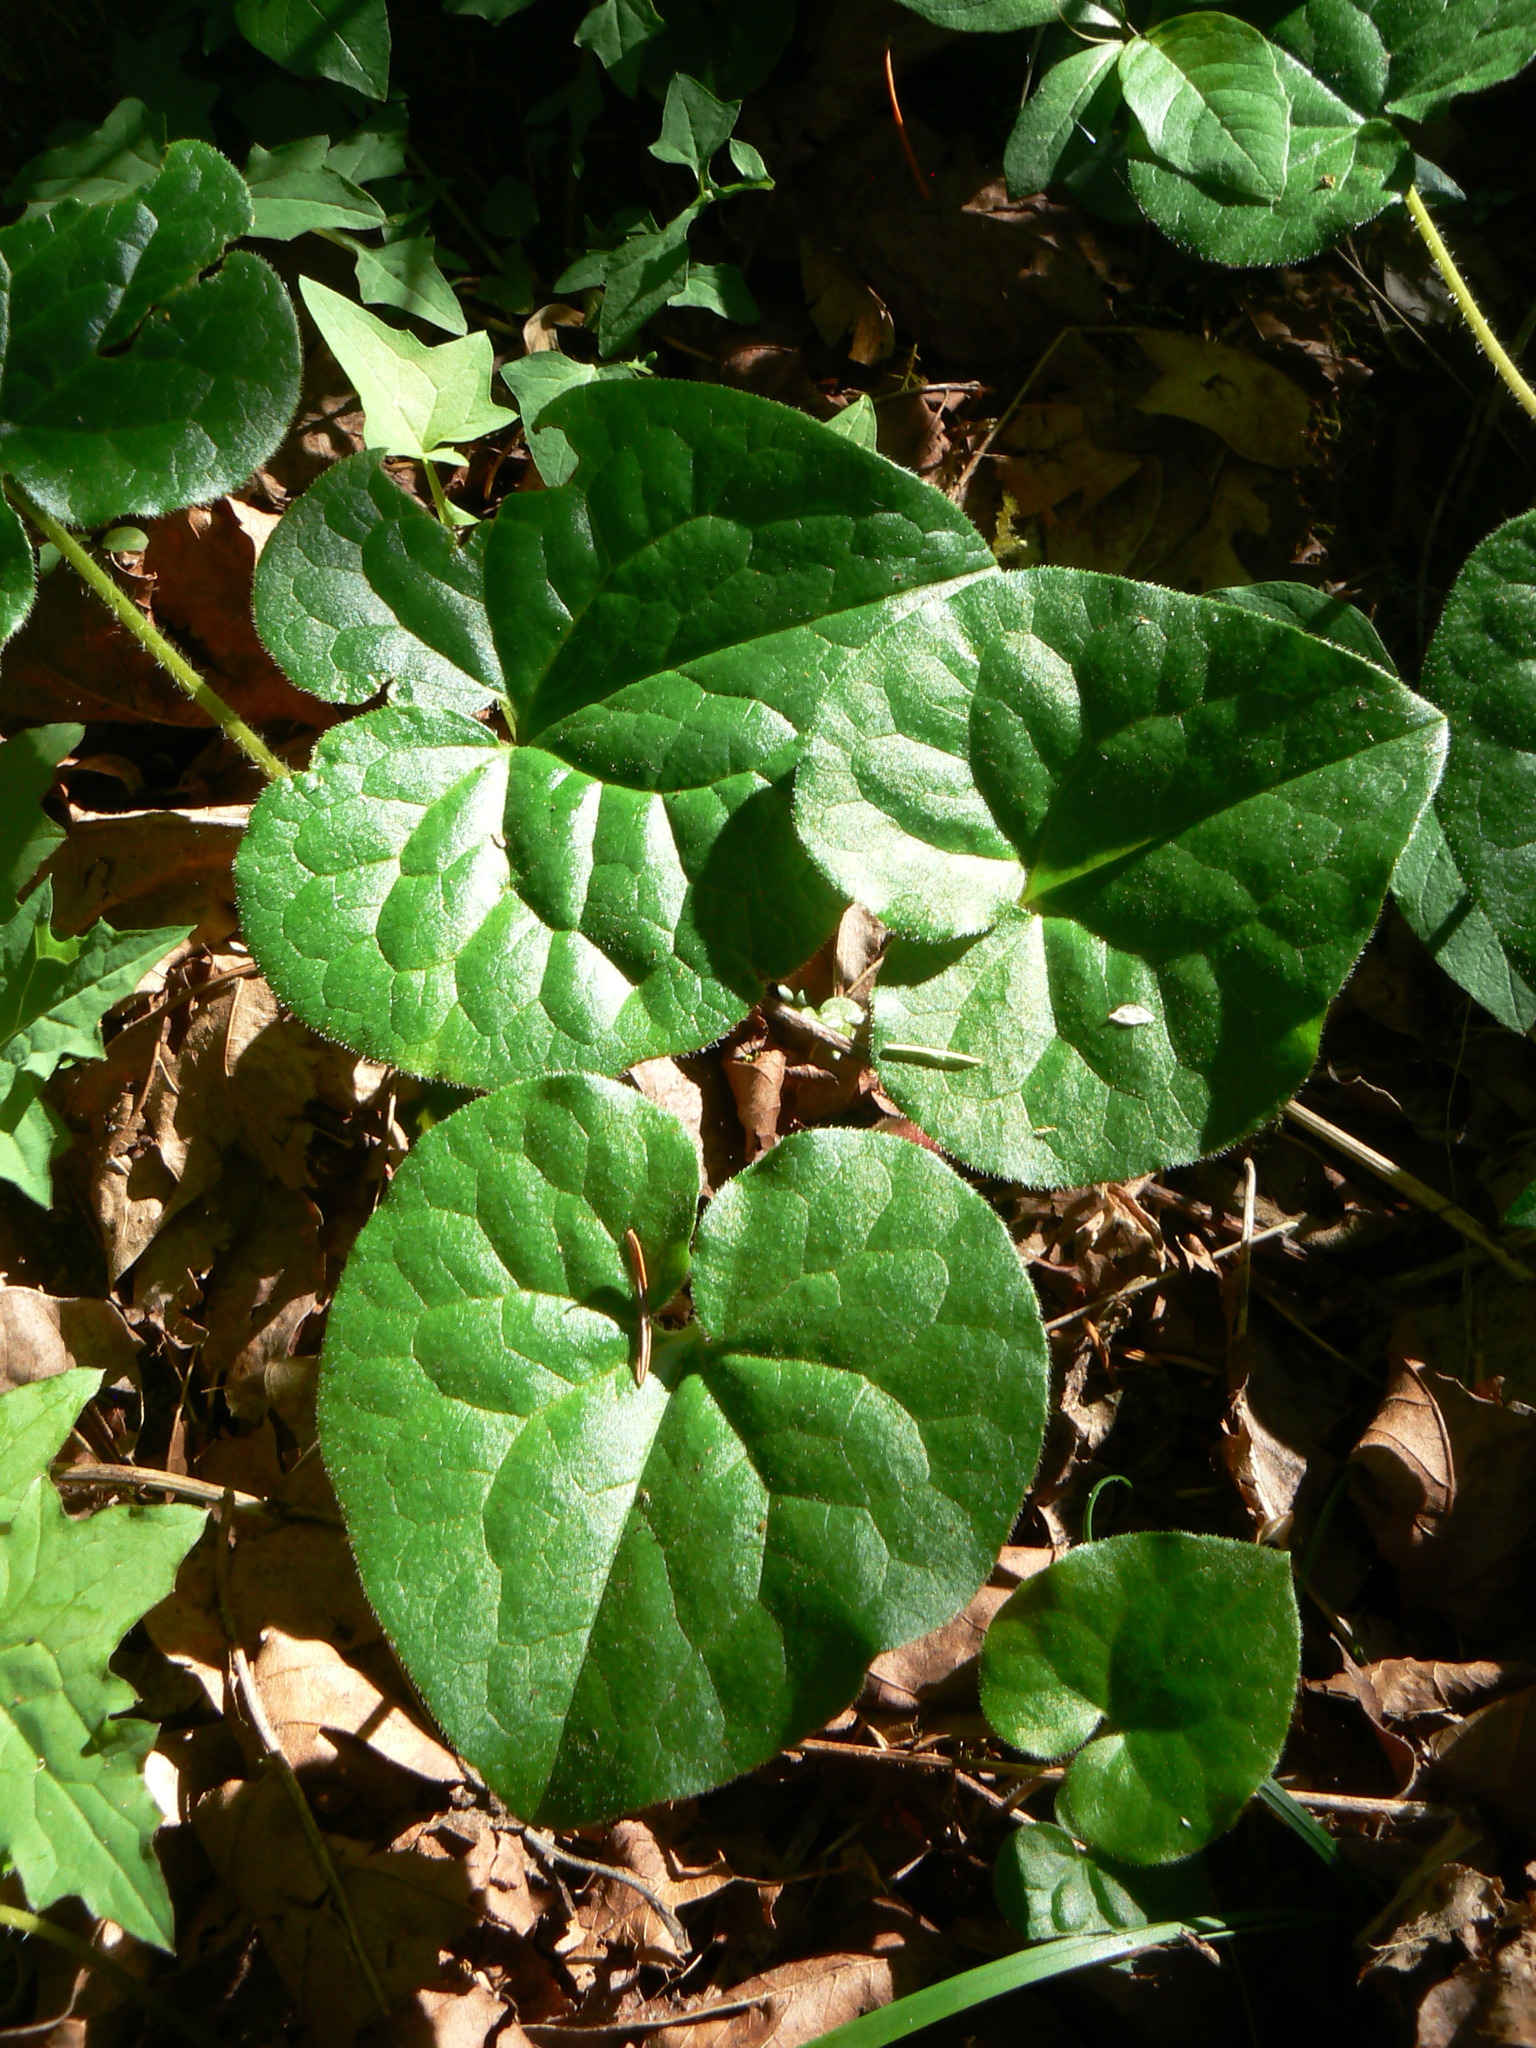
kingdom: Plantae
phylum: Tracheophyta
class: Magnoliopsida
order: Piperales
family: Aristolochiaceae
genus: Asarum
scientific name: Asarum caudatum
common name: Wild ginger
